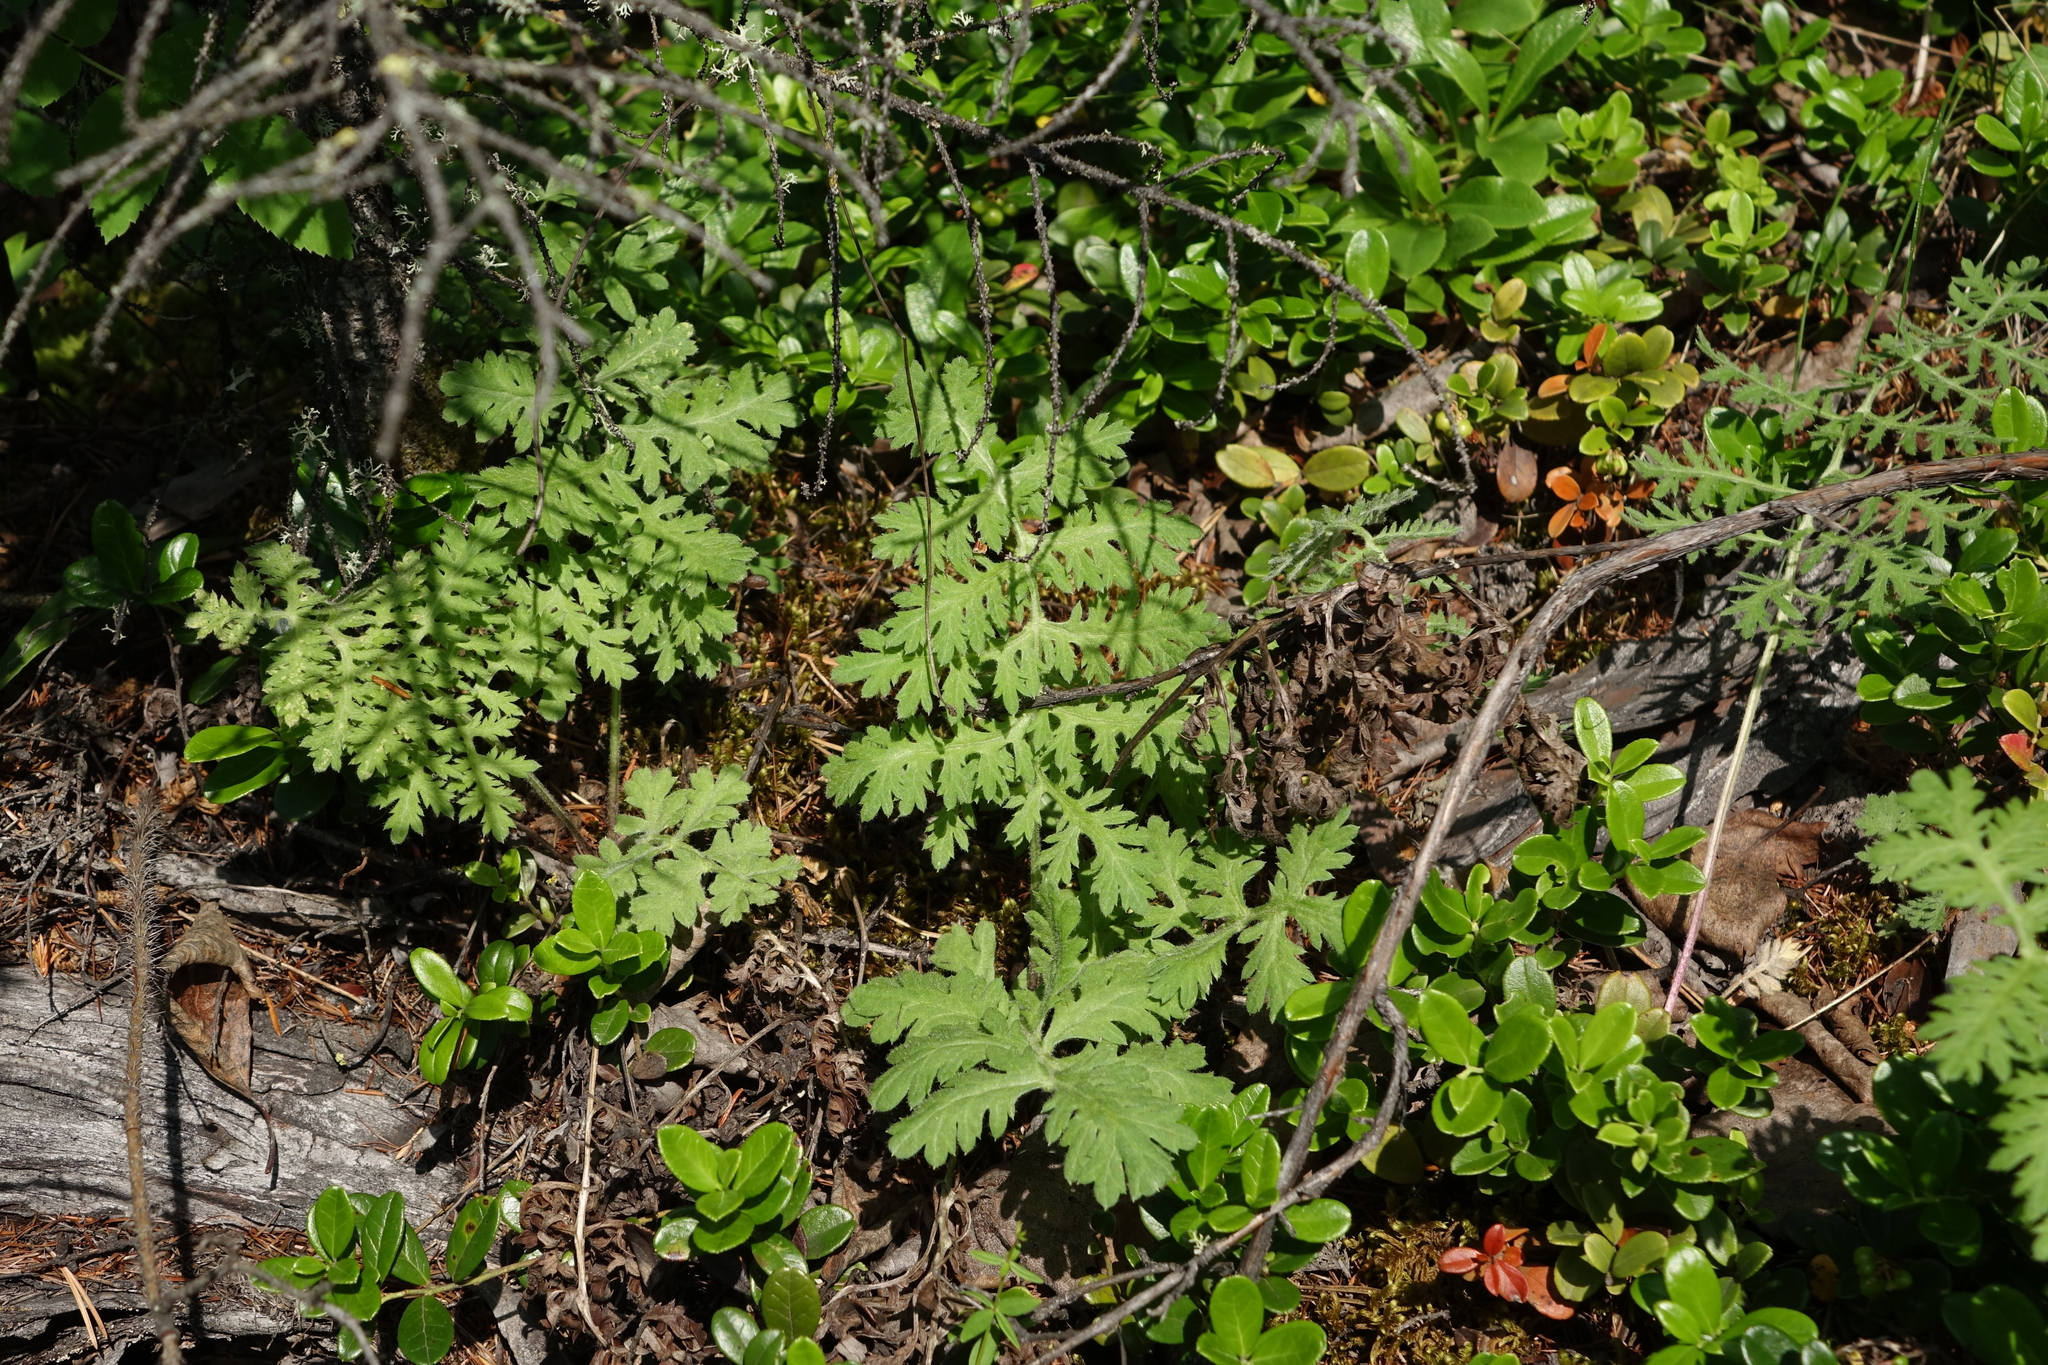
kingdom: Plantae
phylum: Tracheophyta
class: Magnoliopsida
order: Asterales
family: Asteraceae
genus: Artemisia
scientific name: Artemisia tanacetifolia
